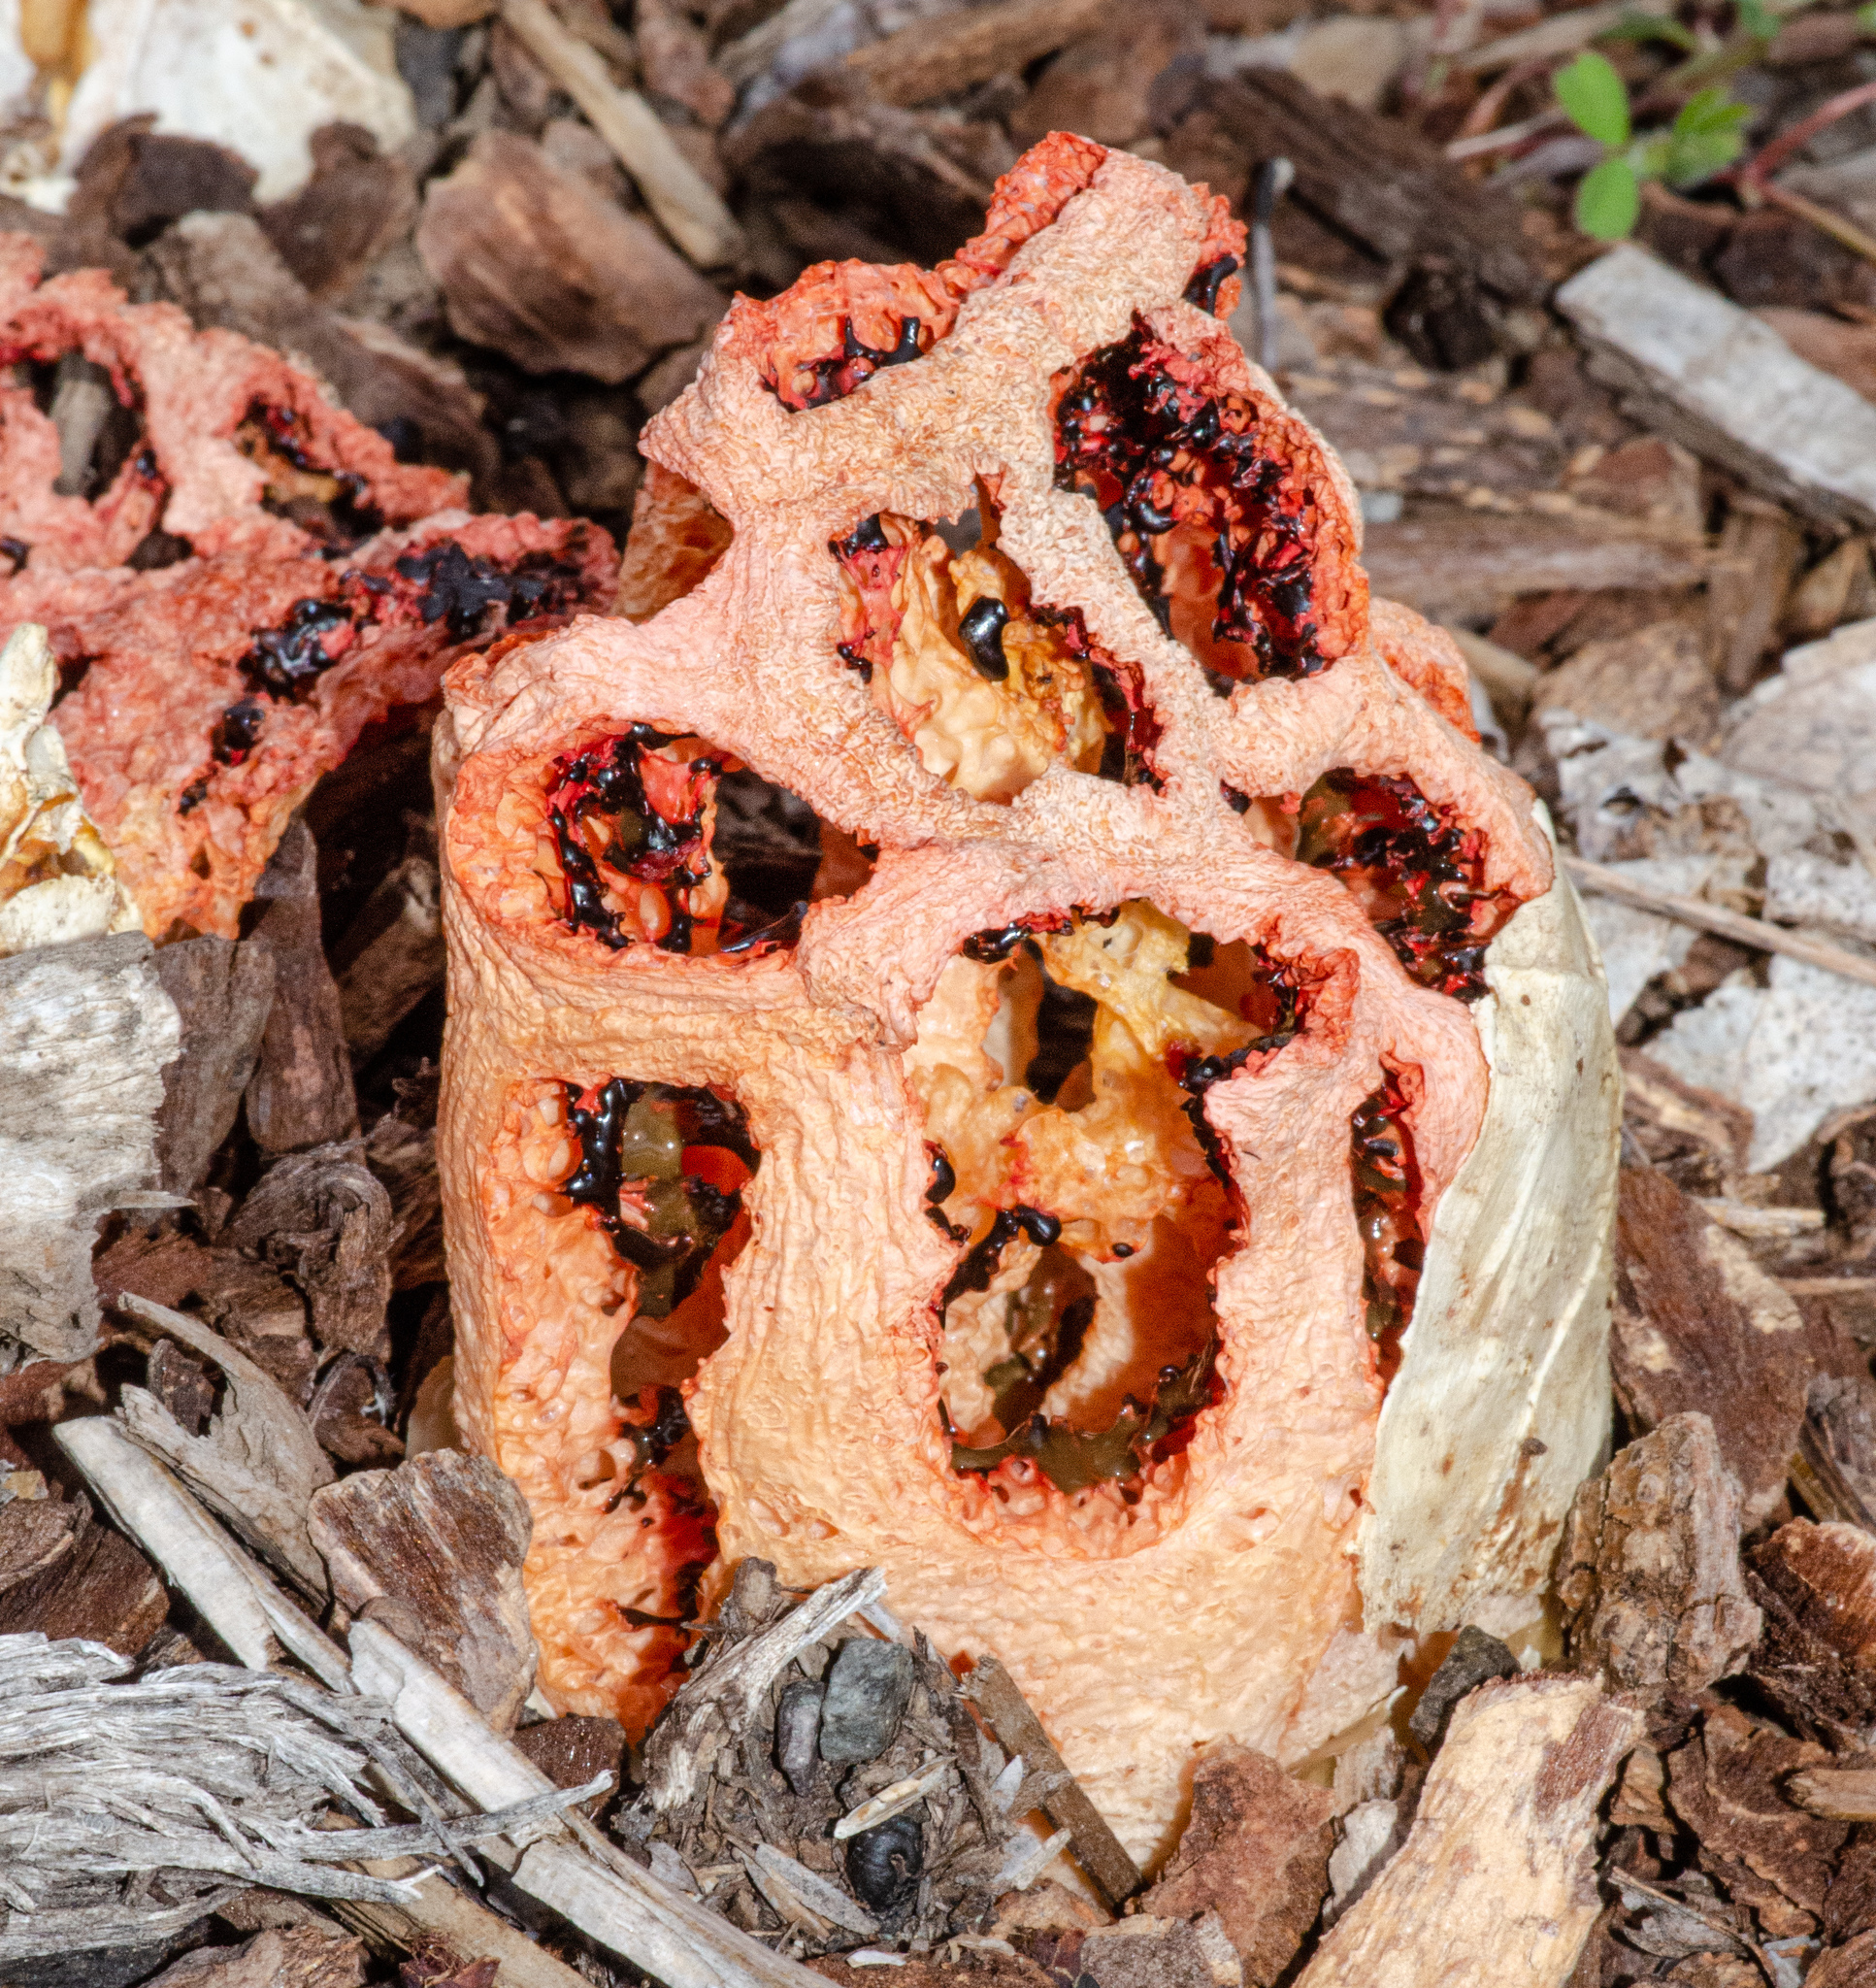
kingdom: Fungi
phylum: Basidiomycota
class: Agaricomycetes
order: Phallales
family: Phallaceae
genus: Clathrus
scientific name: Clathrus ruber
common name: Red cage
